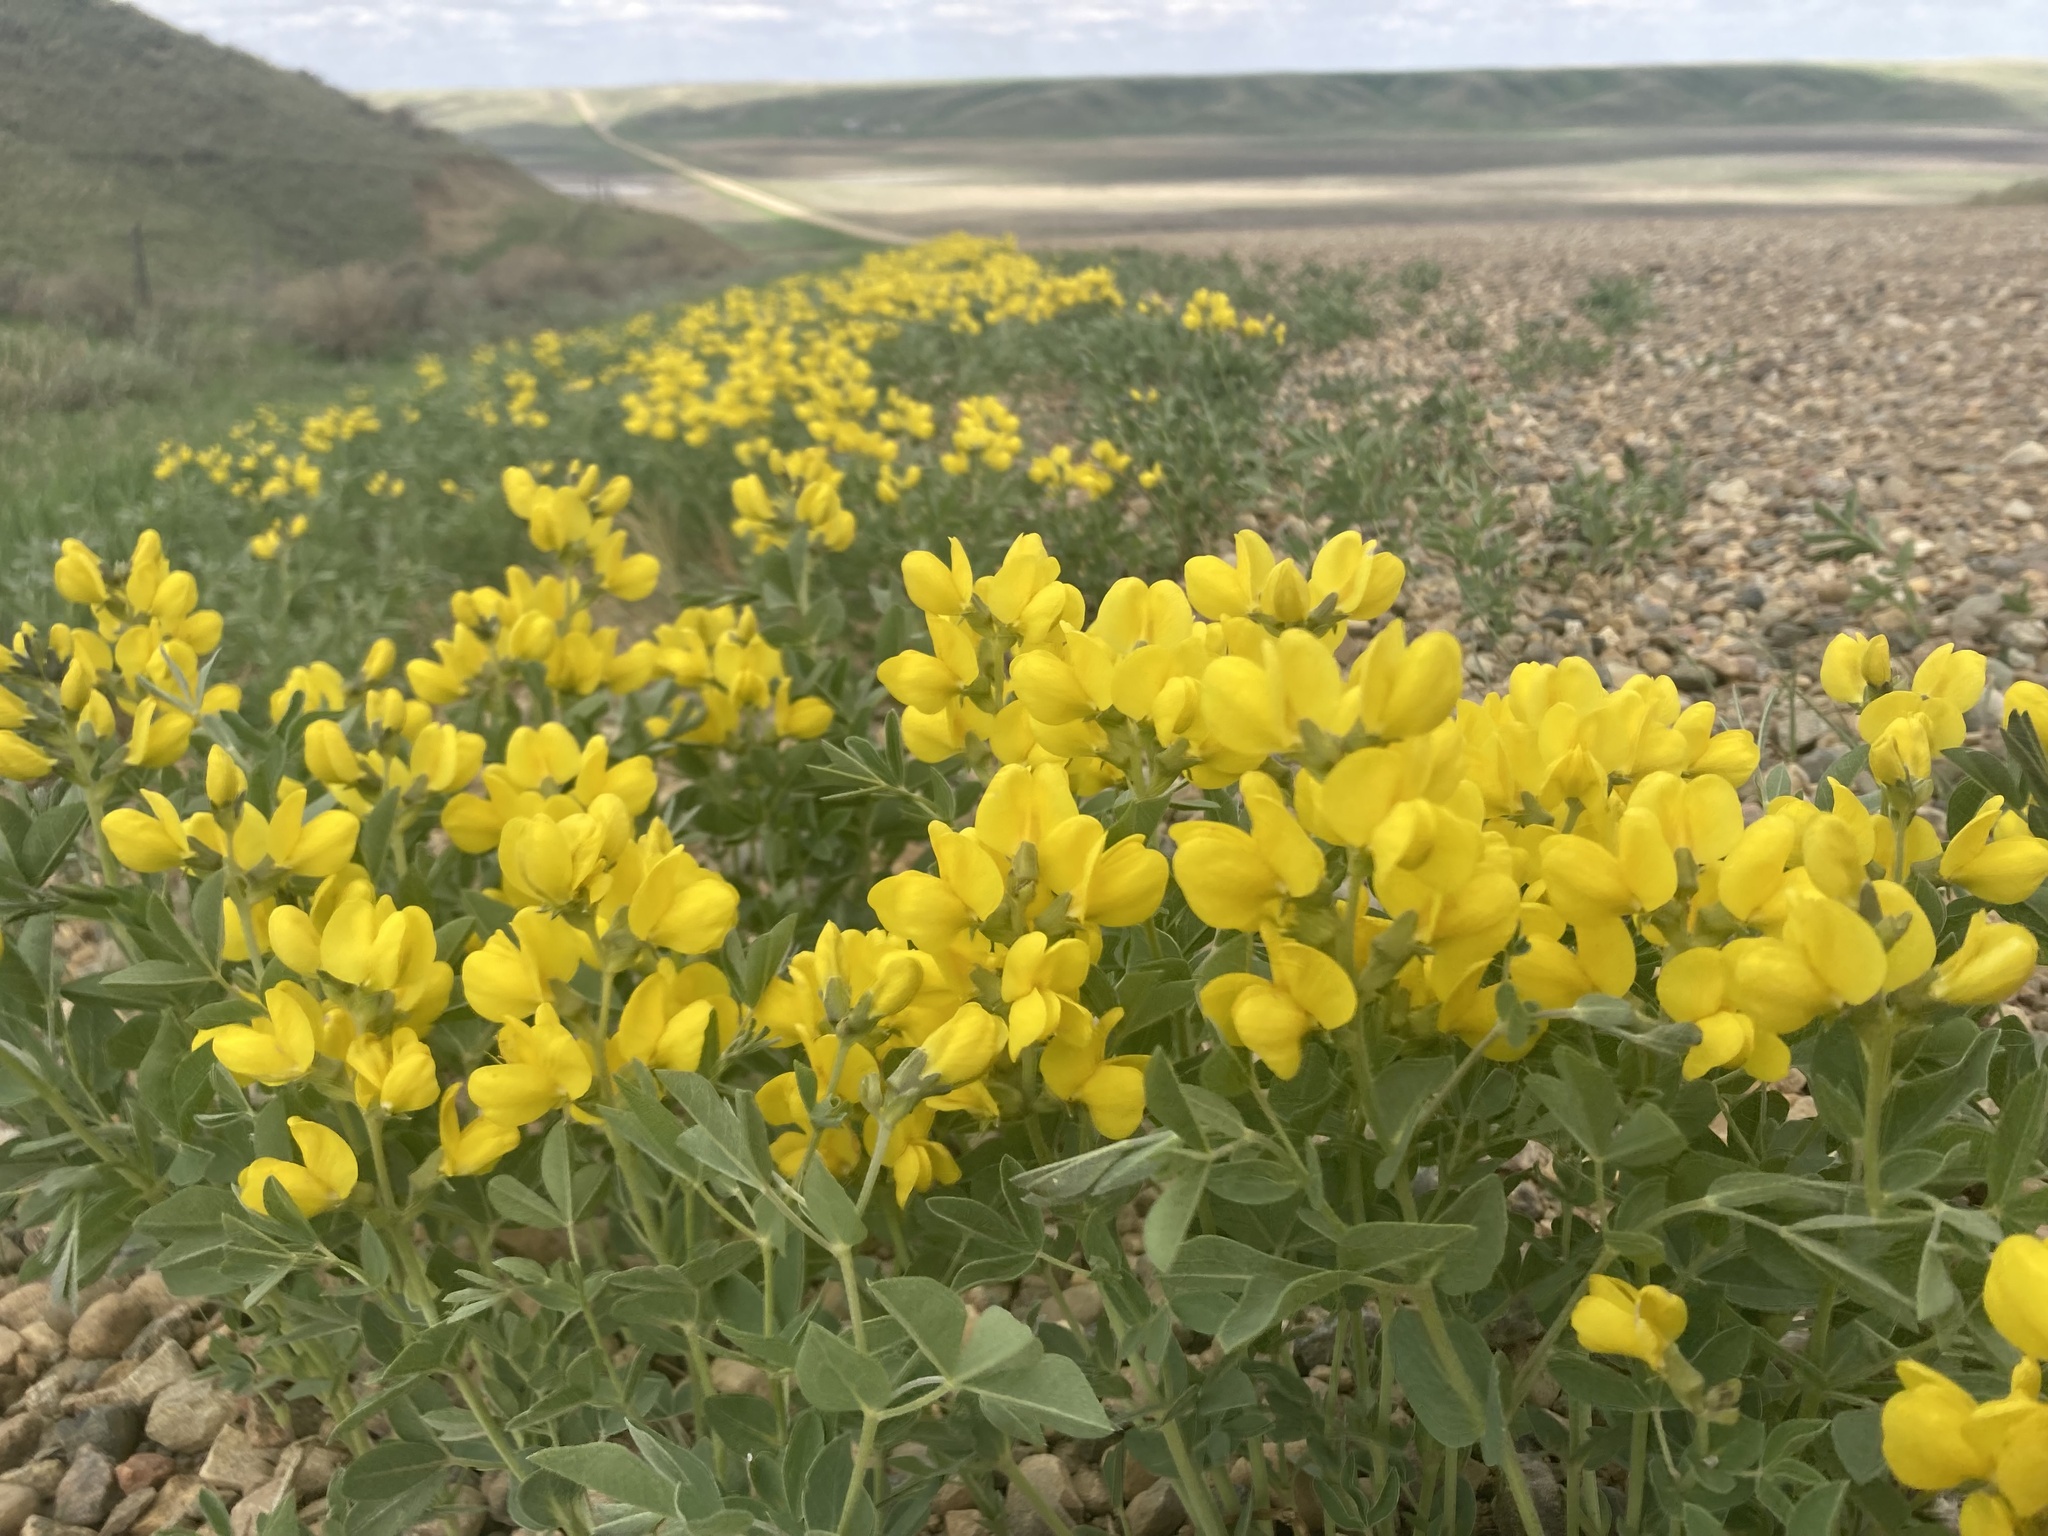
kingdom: Plantae
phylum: Tracheophyta
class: Magnoliopsida
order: Fabales
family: Fabaceae
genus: Thermopsis
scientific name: Thermopsis rhombifolia
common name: Circle-pod-pea
